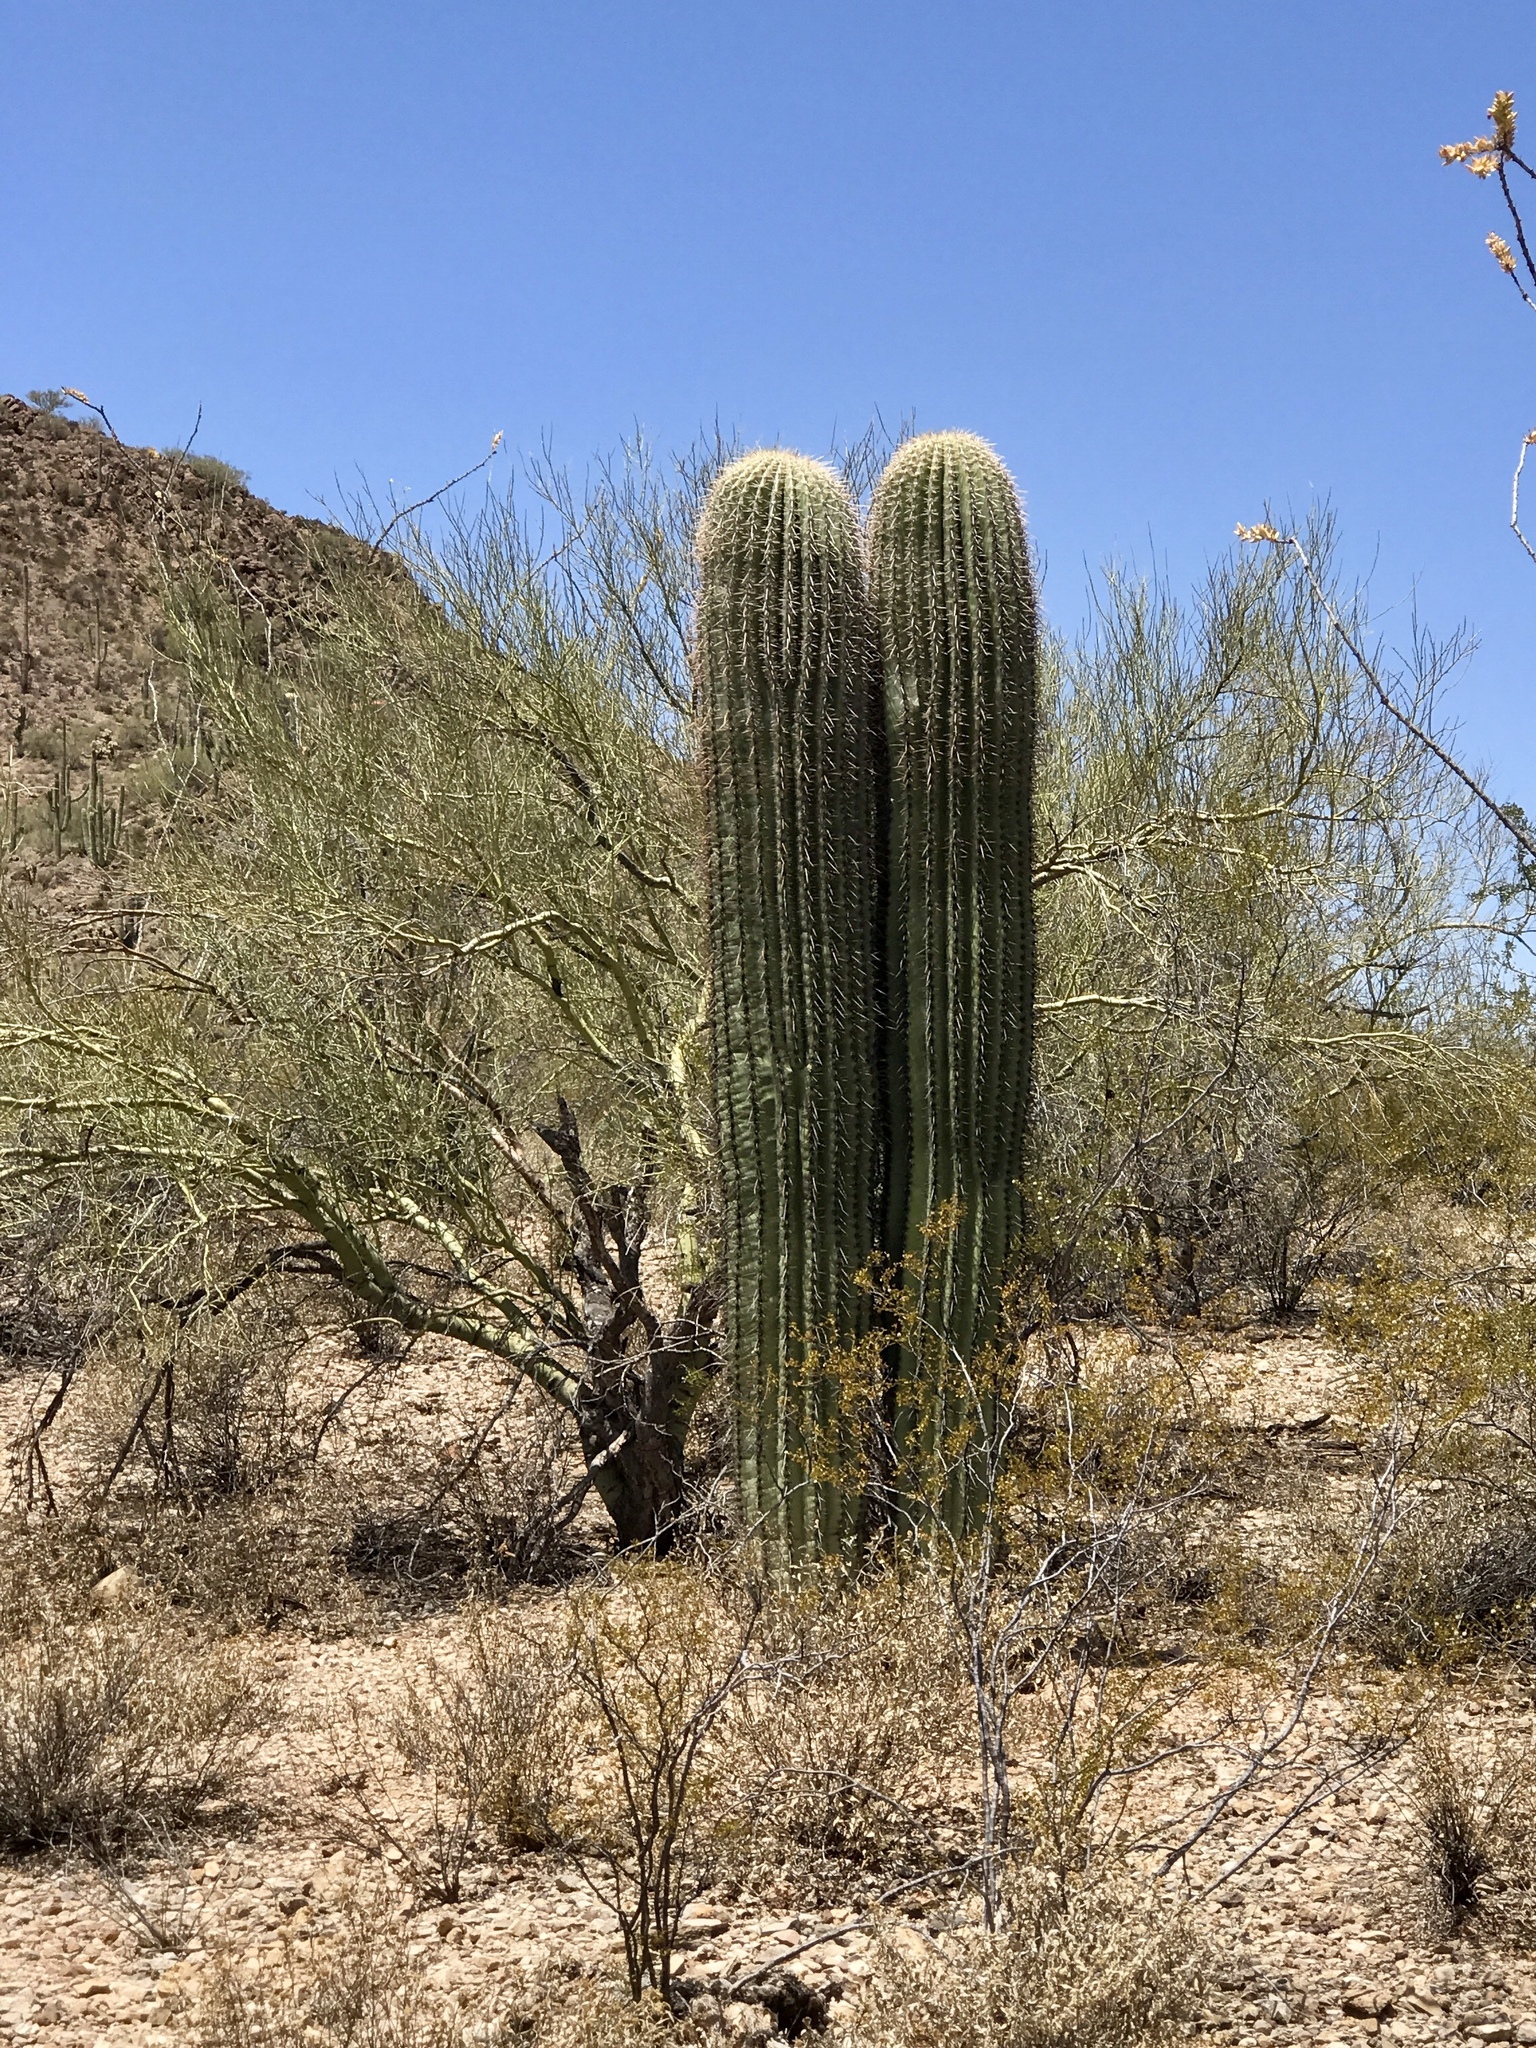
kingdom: Plantae
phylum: Tracheophyta
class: Magnoliopsida
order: Caryophyllales
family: Cactaceae
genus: Carnegiea
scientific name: Carnegiea gigantea
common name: Saguaro
